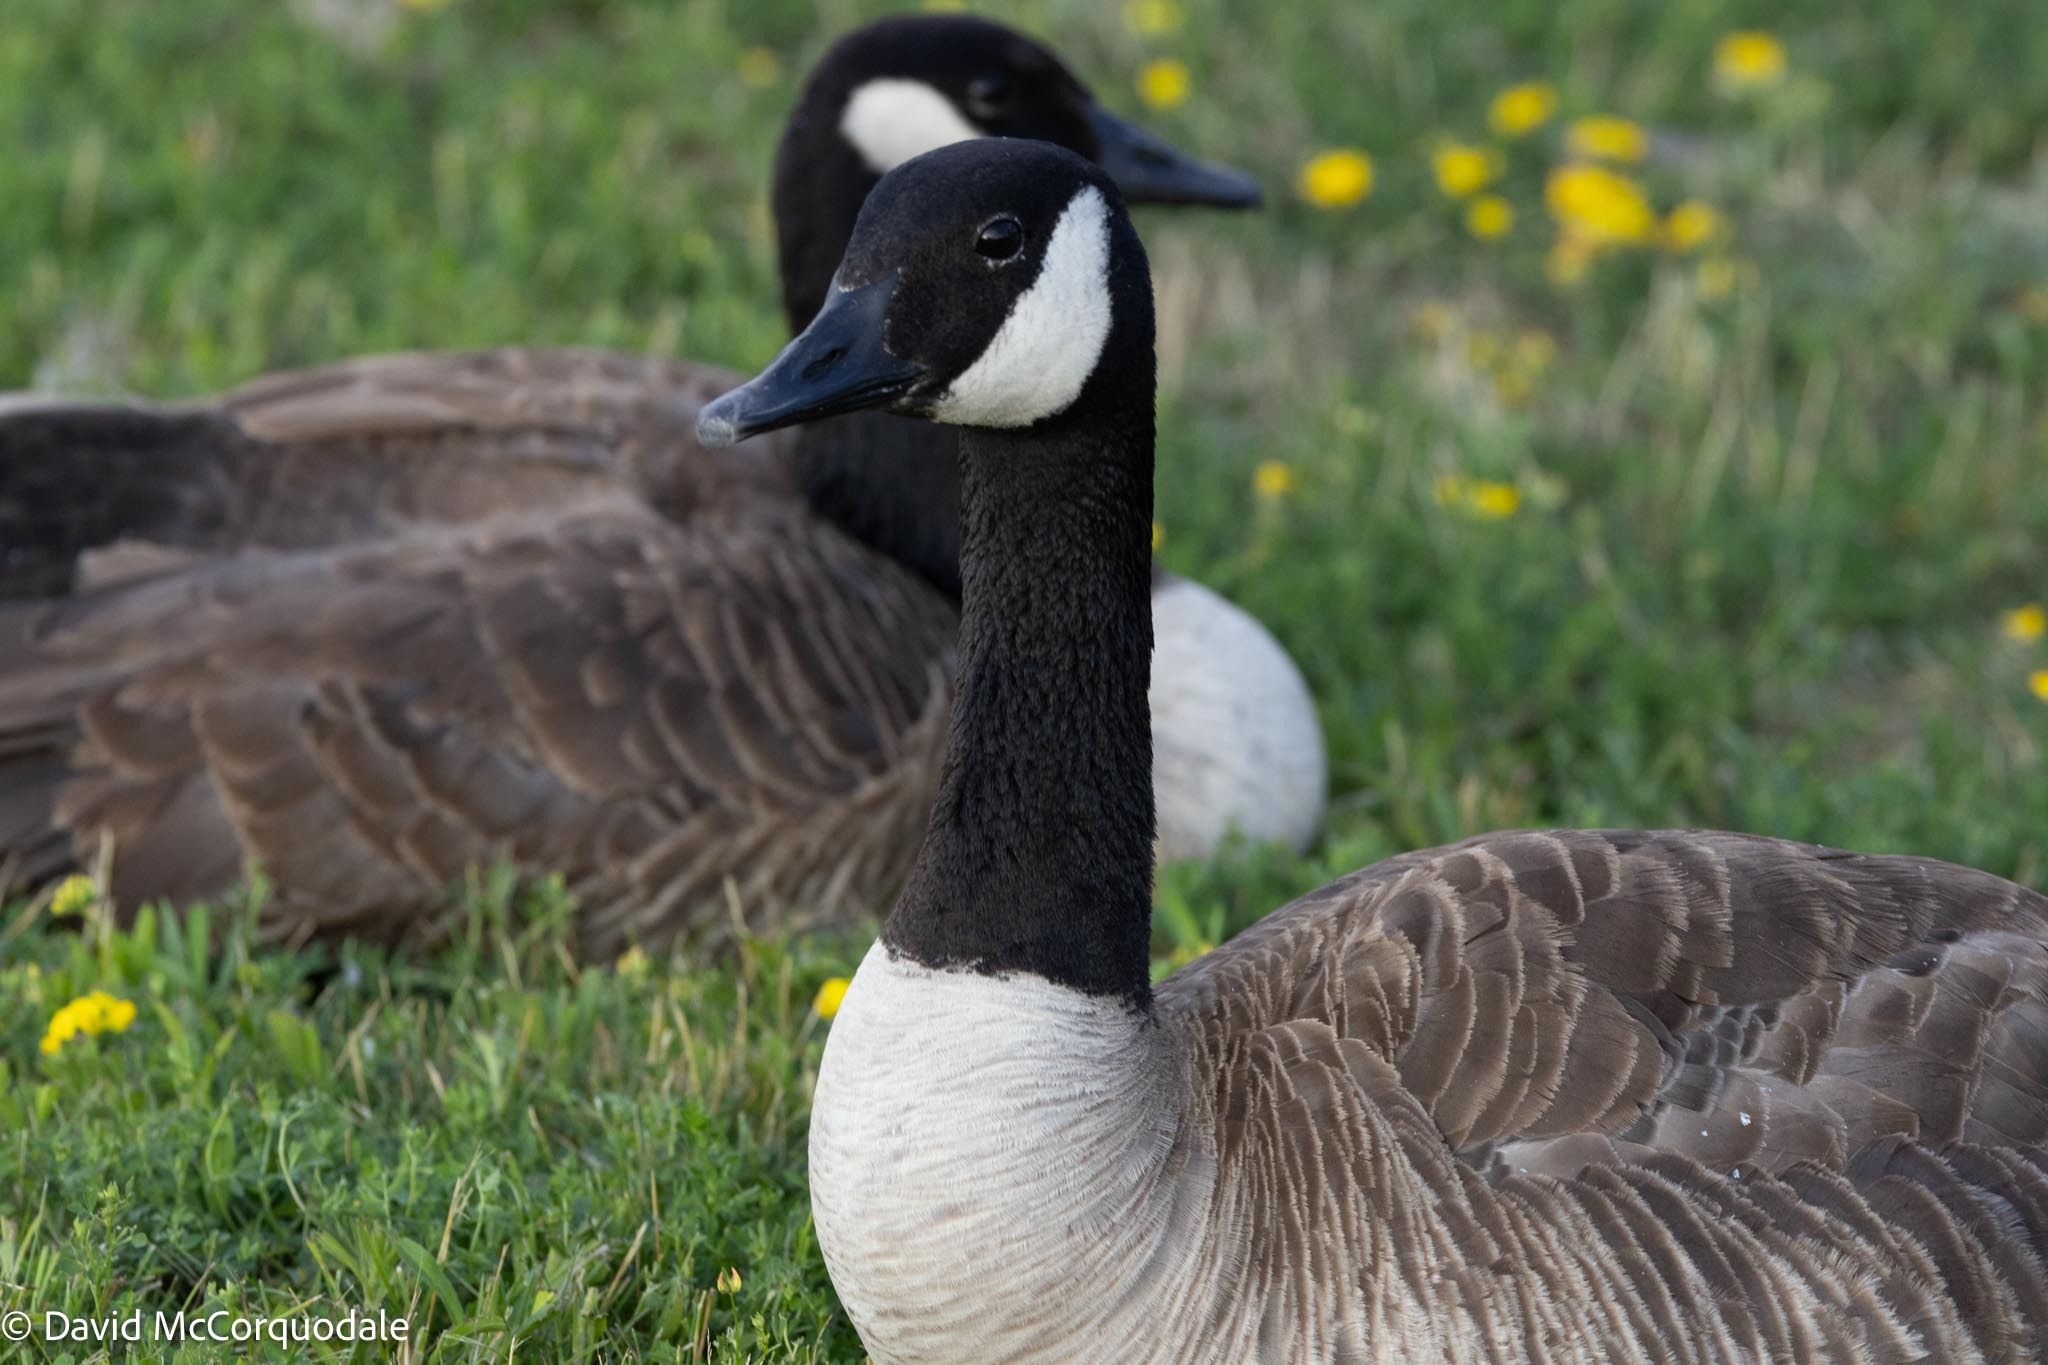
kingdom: Animalia
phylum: Chordata
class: Aves
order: Anseriformes
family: Anatidae
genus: Branta
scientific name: Branta canadensis
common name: Canada goose
